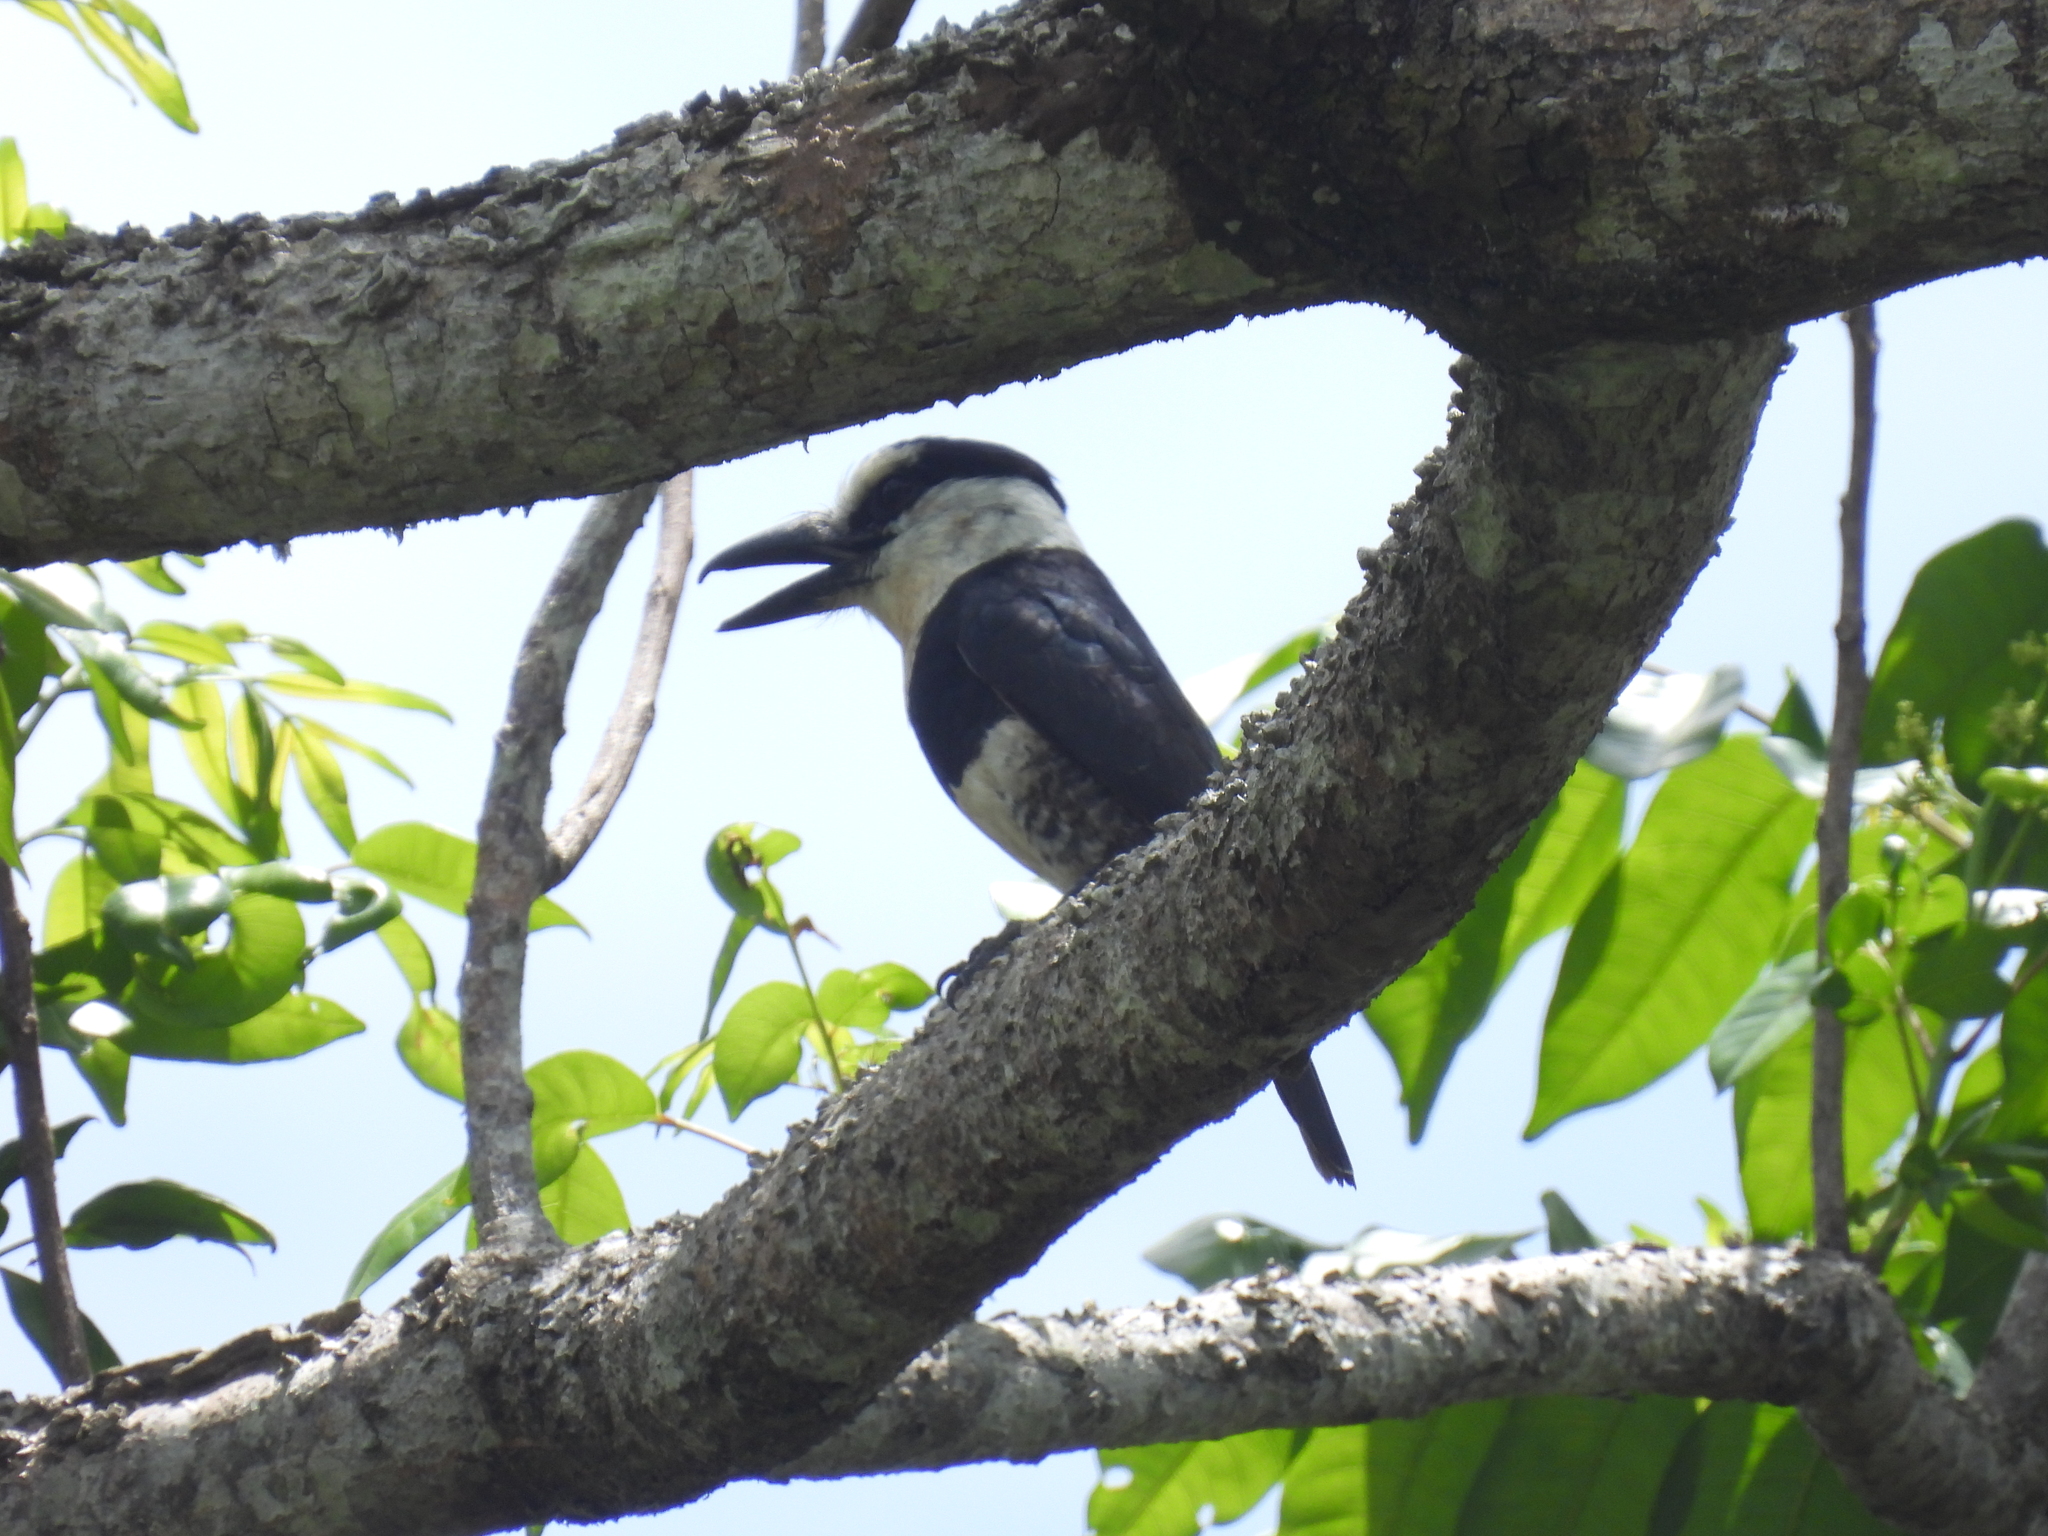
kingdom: Animalia
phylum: Chordata
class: Aves
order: Piciformes
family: Bucconidae
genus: Notharchus
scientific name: Notharchus hyperrhynchus
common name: White-necked puffbird
